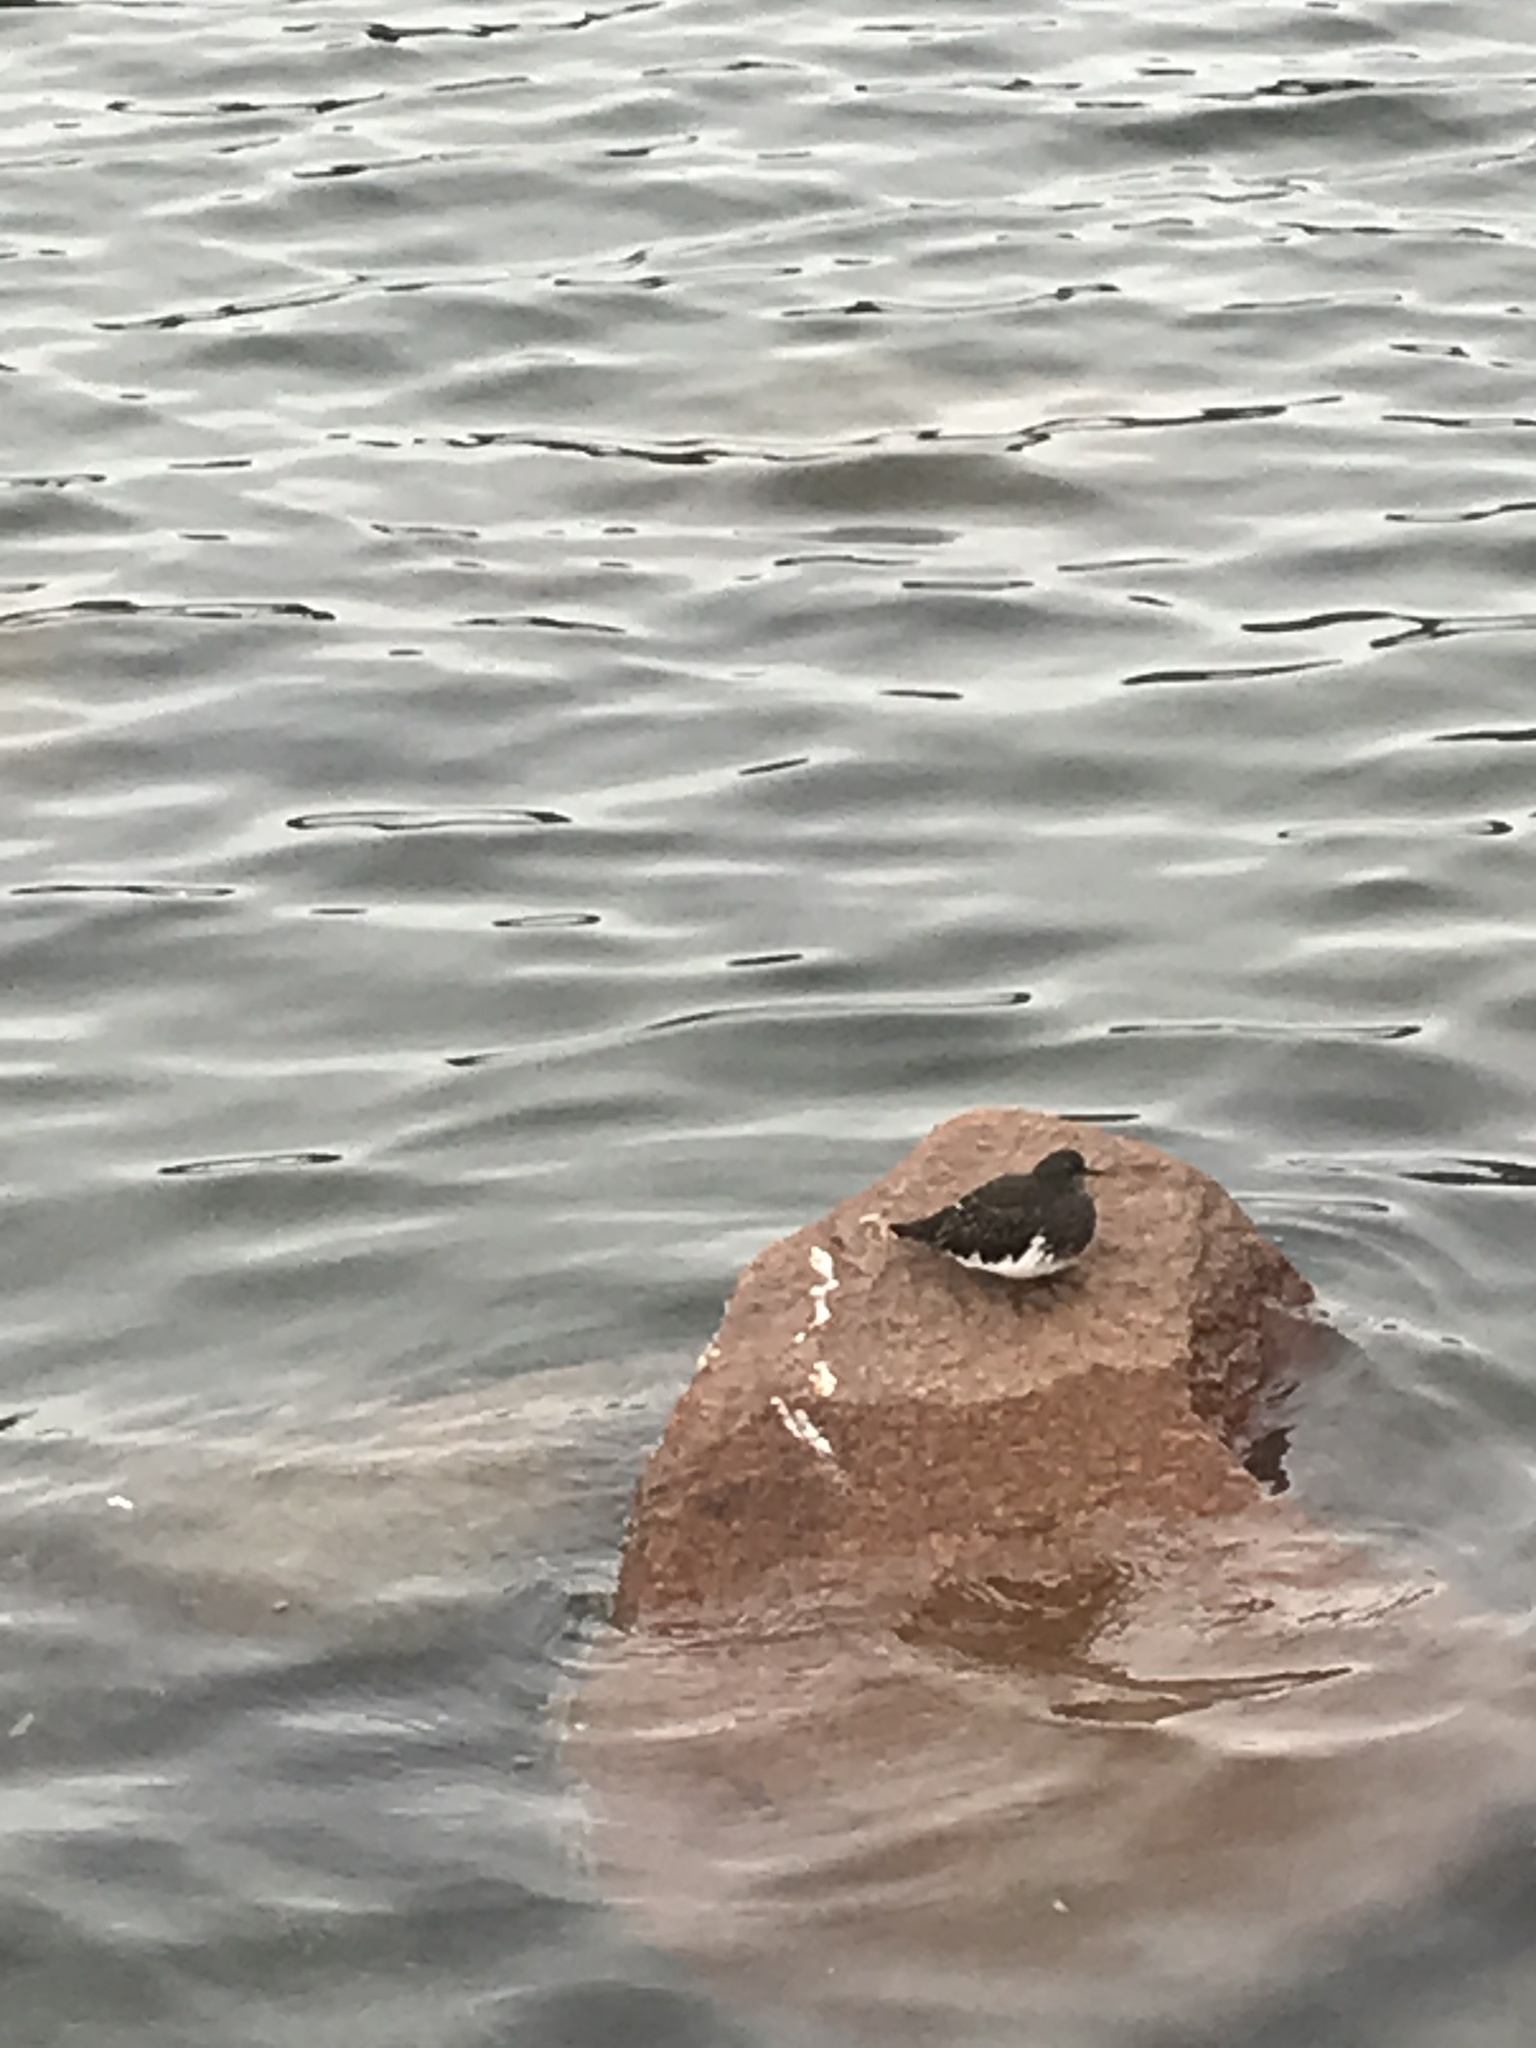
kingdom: Animalia
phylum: Chordata
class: Aves
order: Charadriiformes
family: Scolopacidae
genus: Arenaria
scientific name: Arenaria melanocephala
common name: Black turnstone
